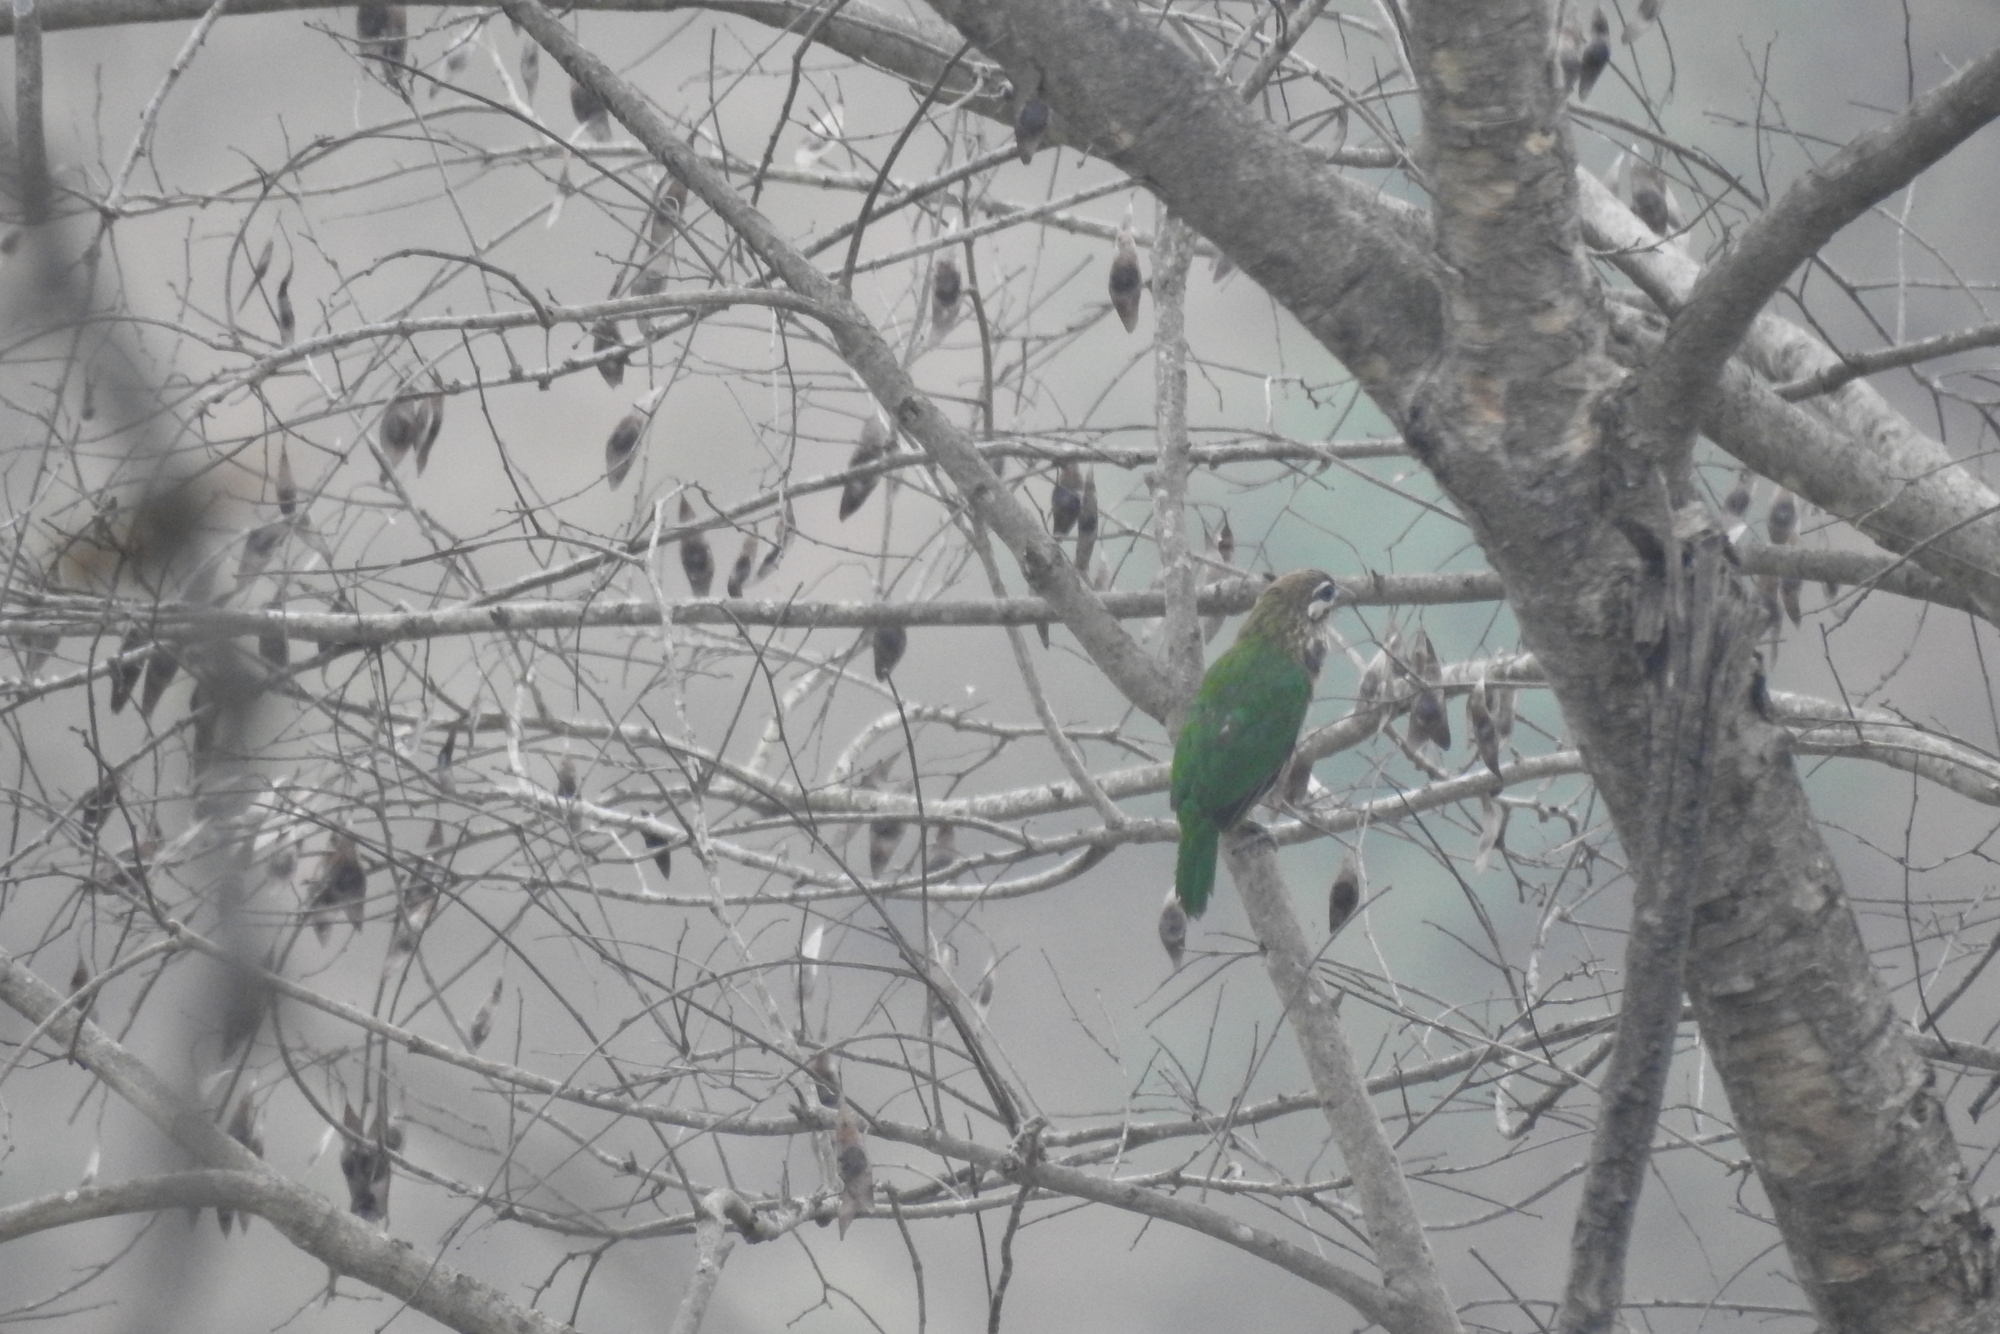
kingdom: Animalia
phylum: Chordata
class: Aves
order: Piciformes
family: Megalaimidae
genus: Psilopogon
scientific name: Psilopogon viridis
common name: White-cheeked barbet
